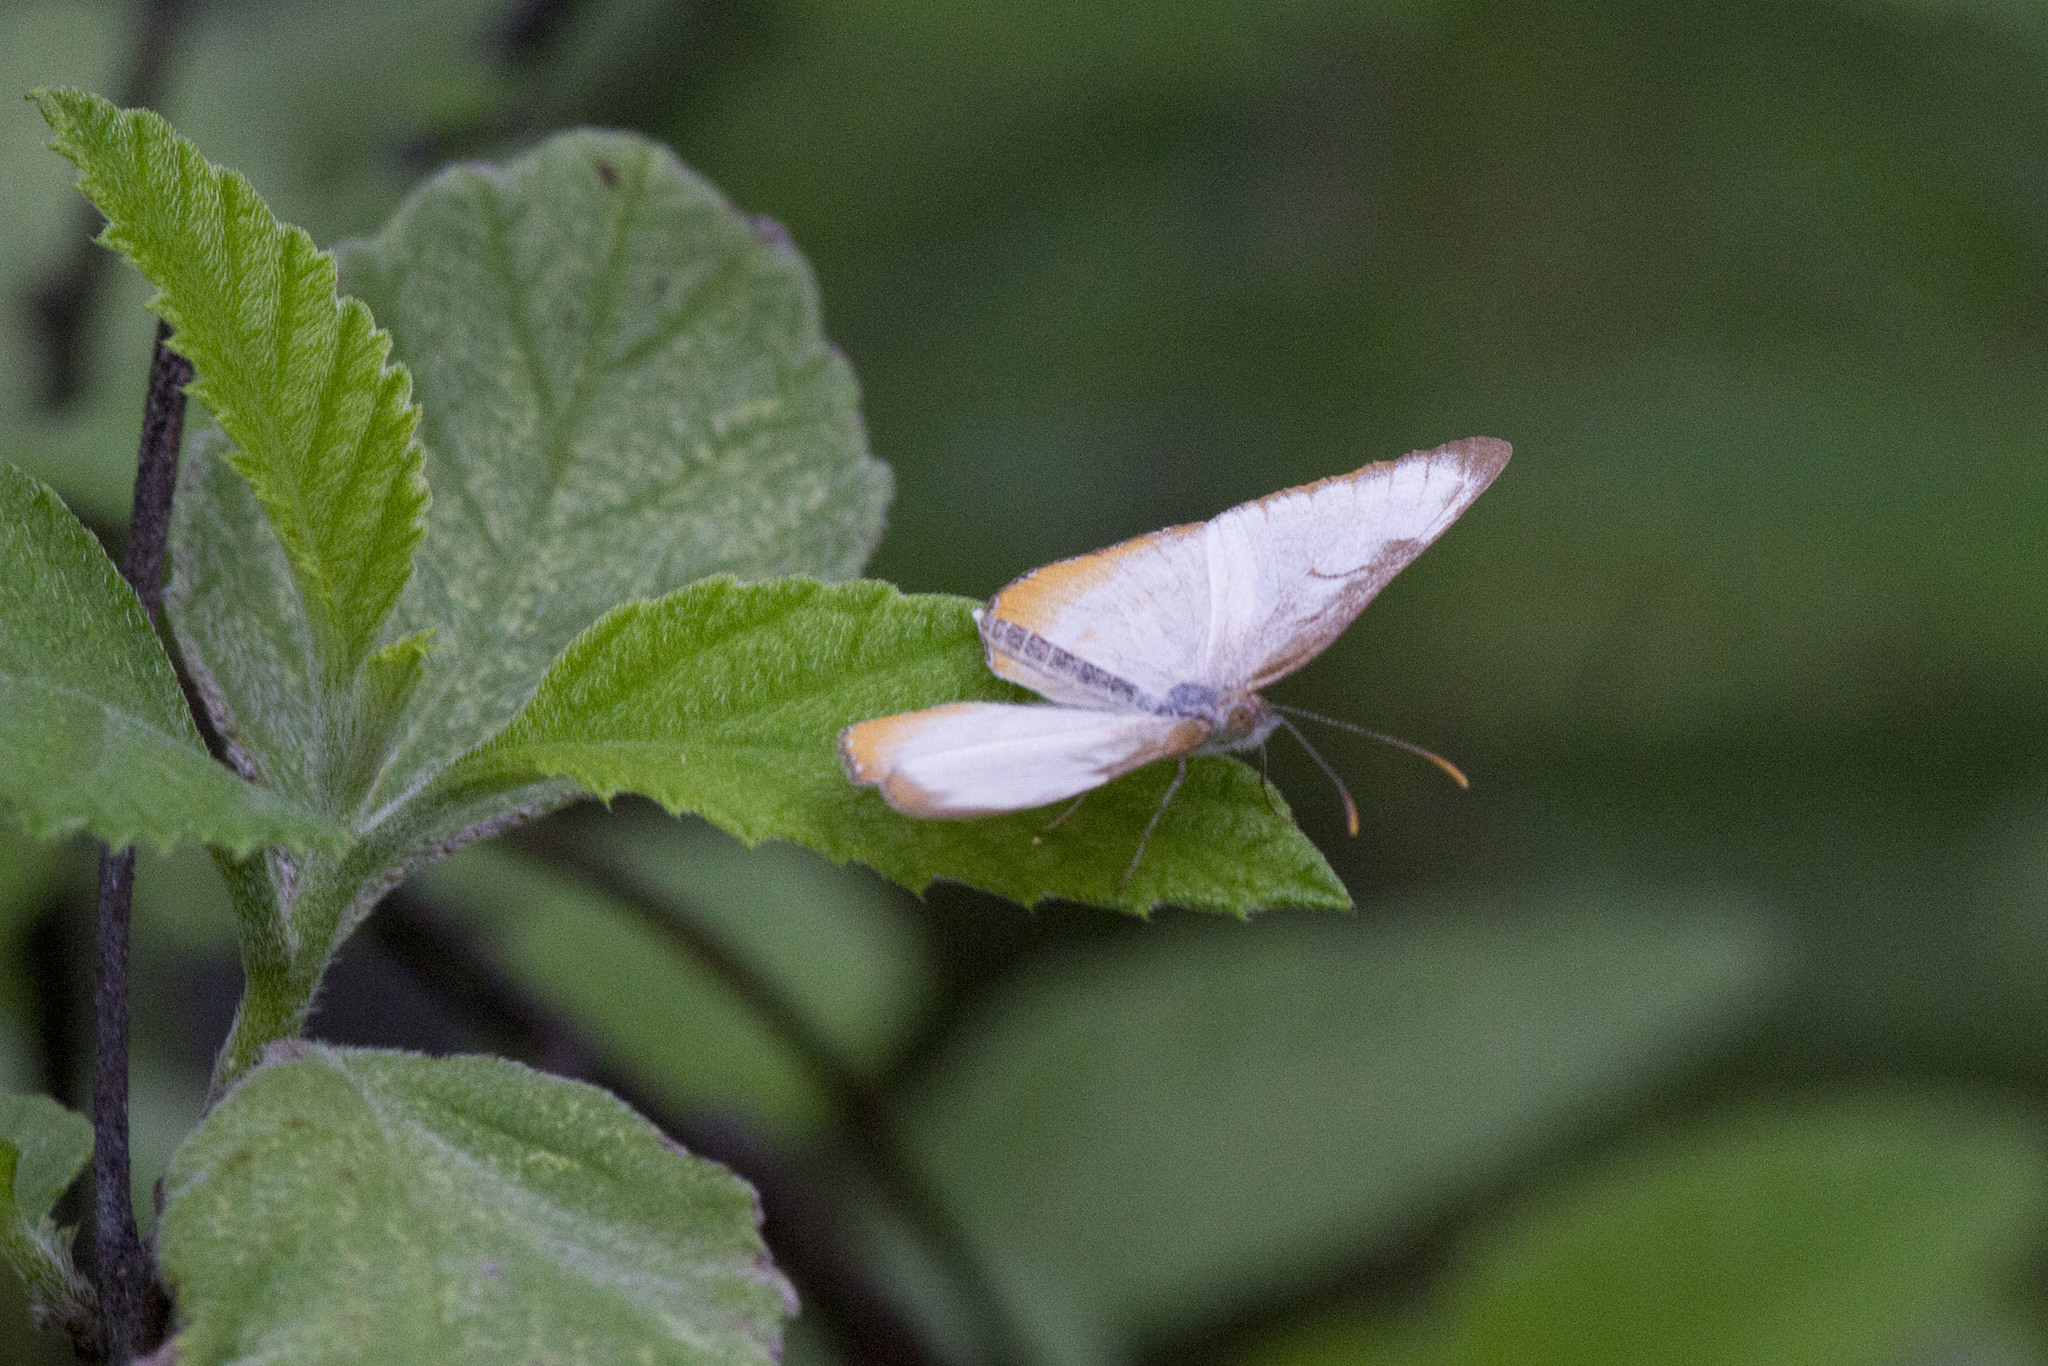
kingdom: Animalia
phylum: Arthropoda
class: Insecta
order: Lepidoptera
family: Nymphalidae
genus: Mestra
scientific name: Mestra amymone
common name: Common mestra
